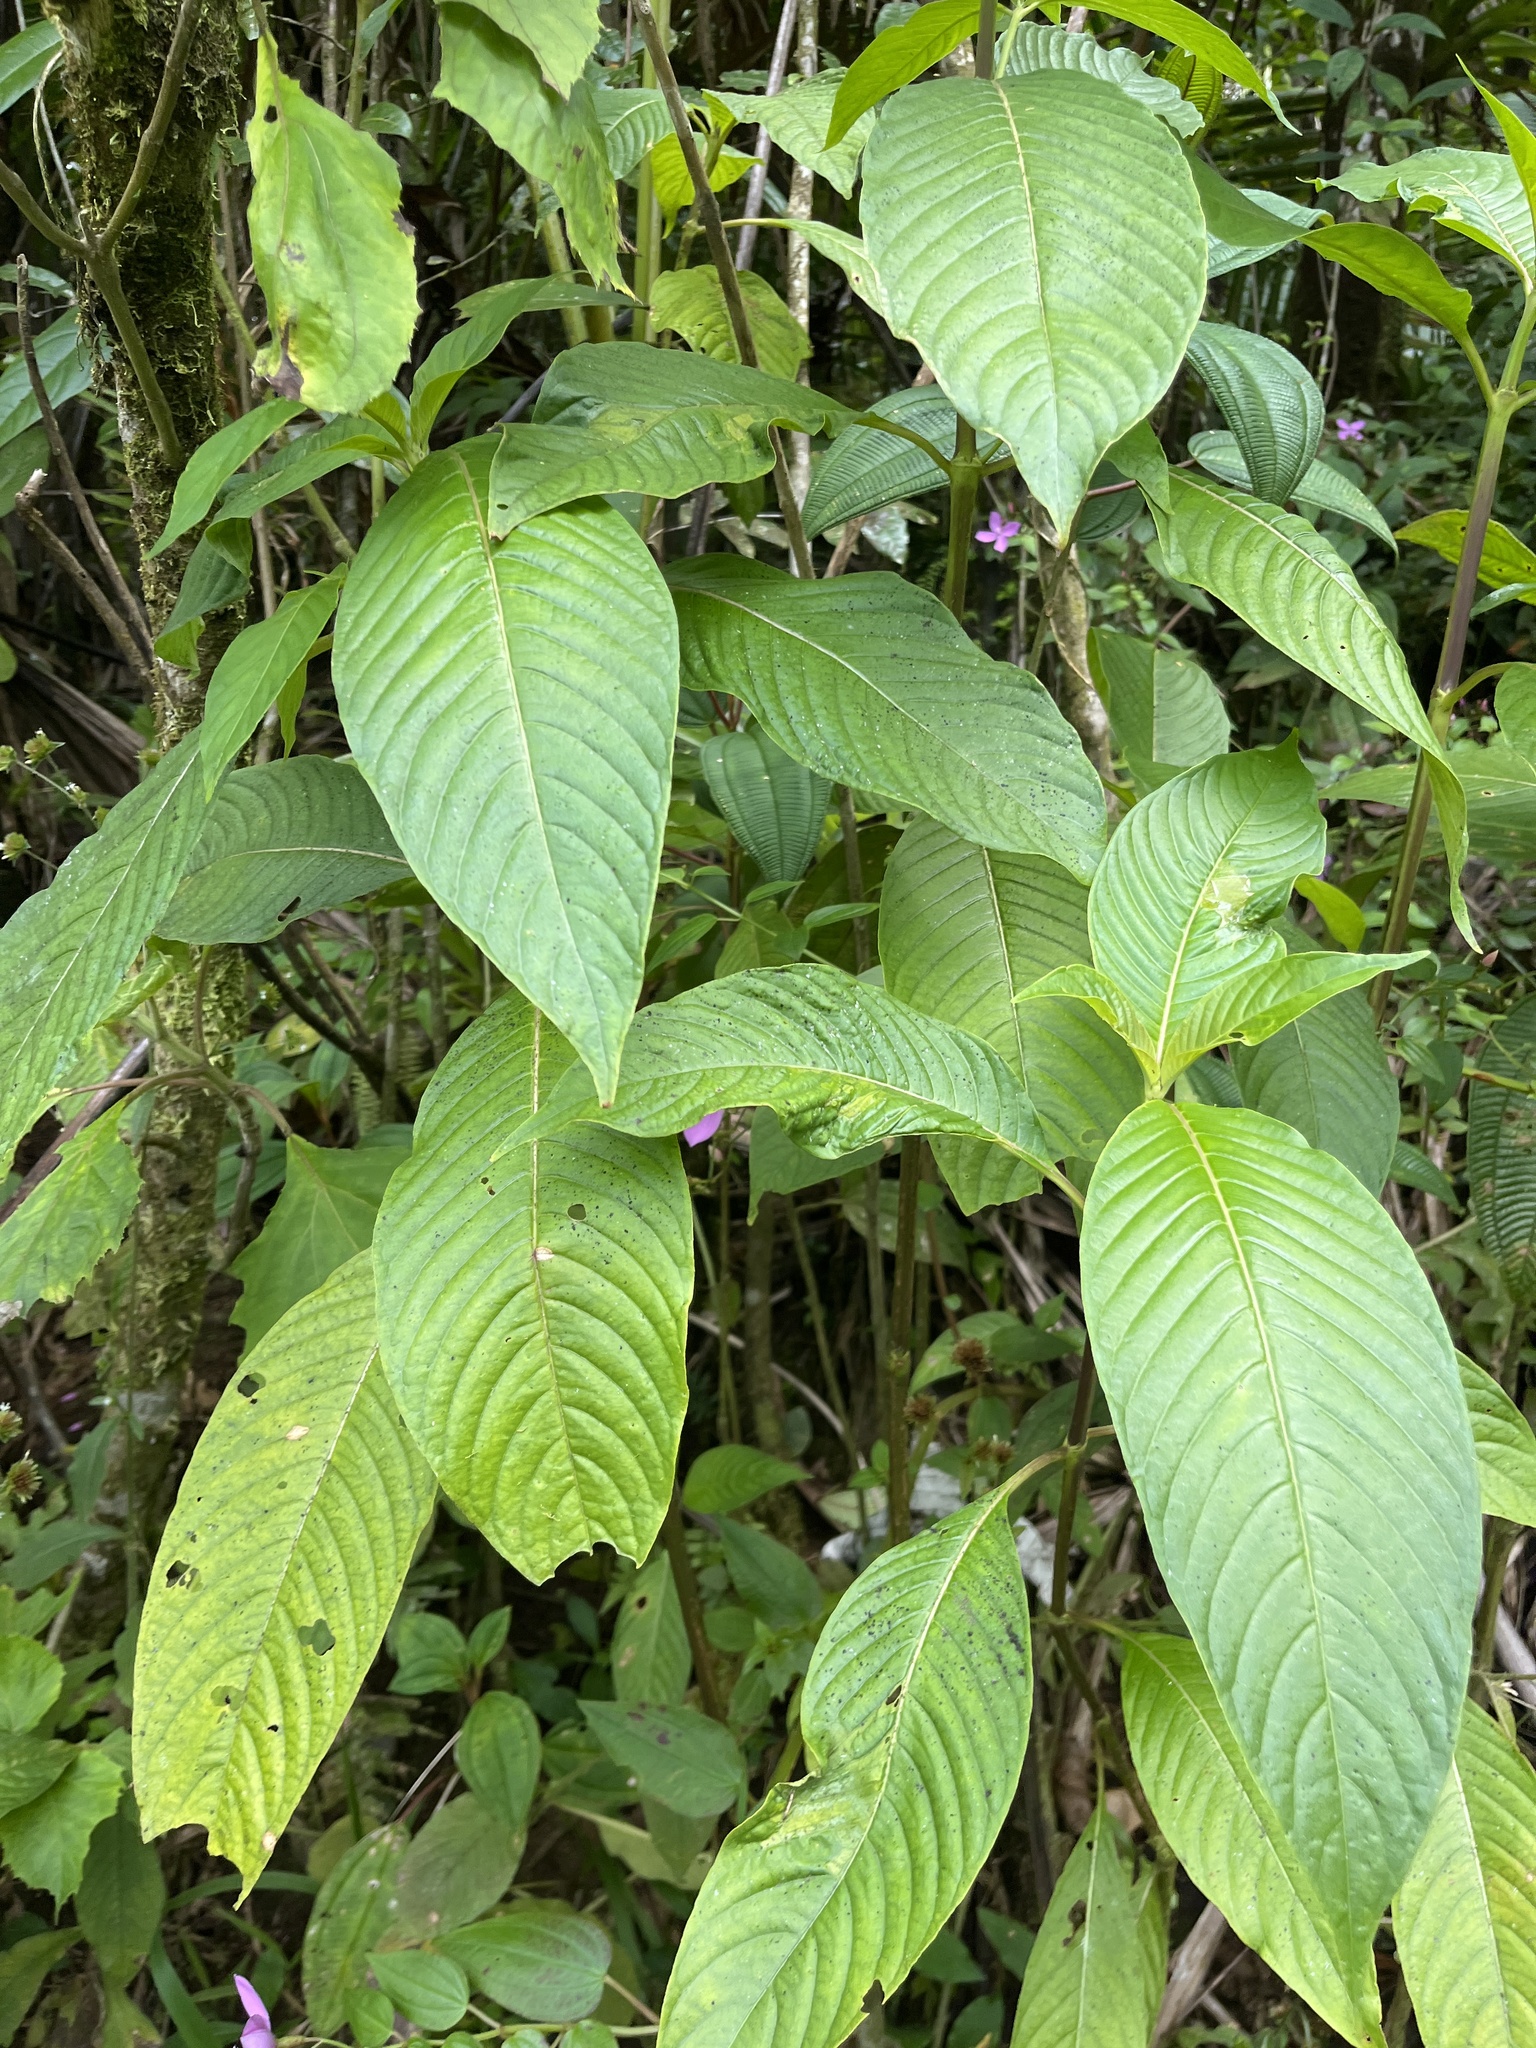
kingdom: Plantae
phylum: Tracheophyta
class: Magnoliopsida
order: Gentianales
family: Rubiaceae
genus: Palicourea
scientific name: Palicourea berteroana
